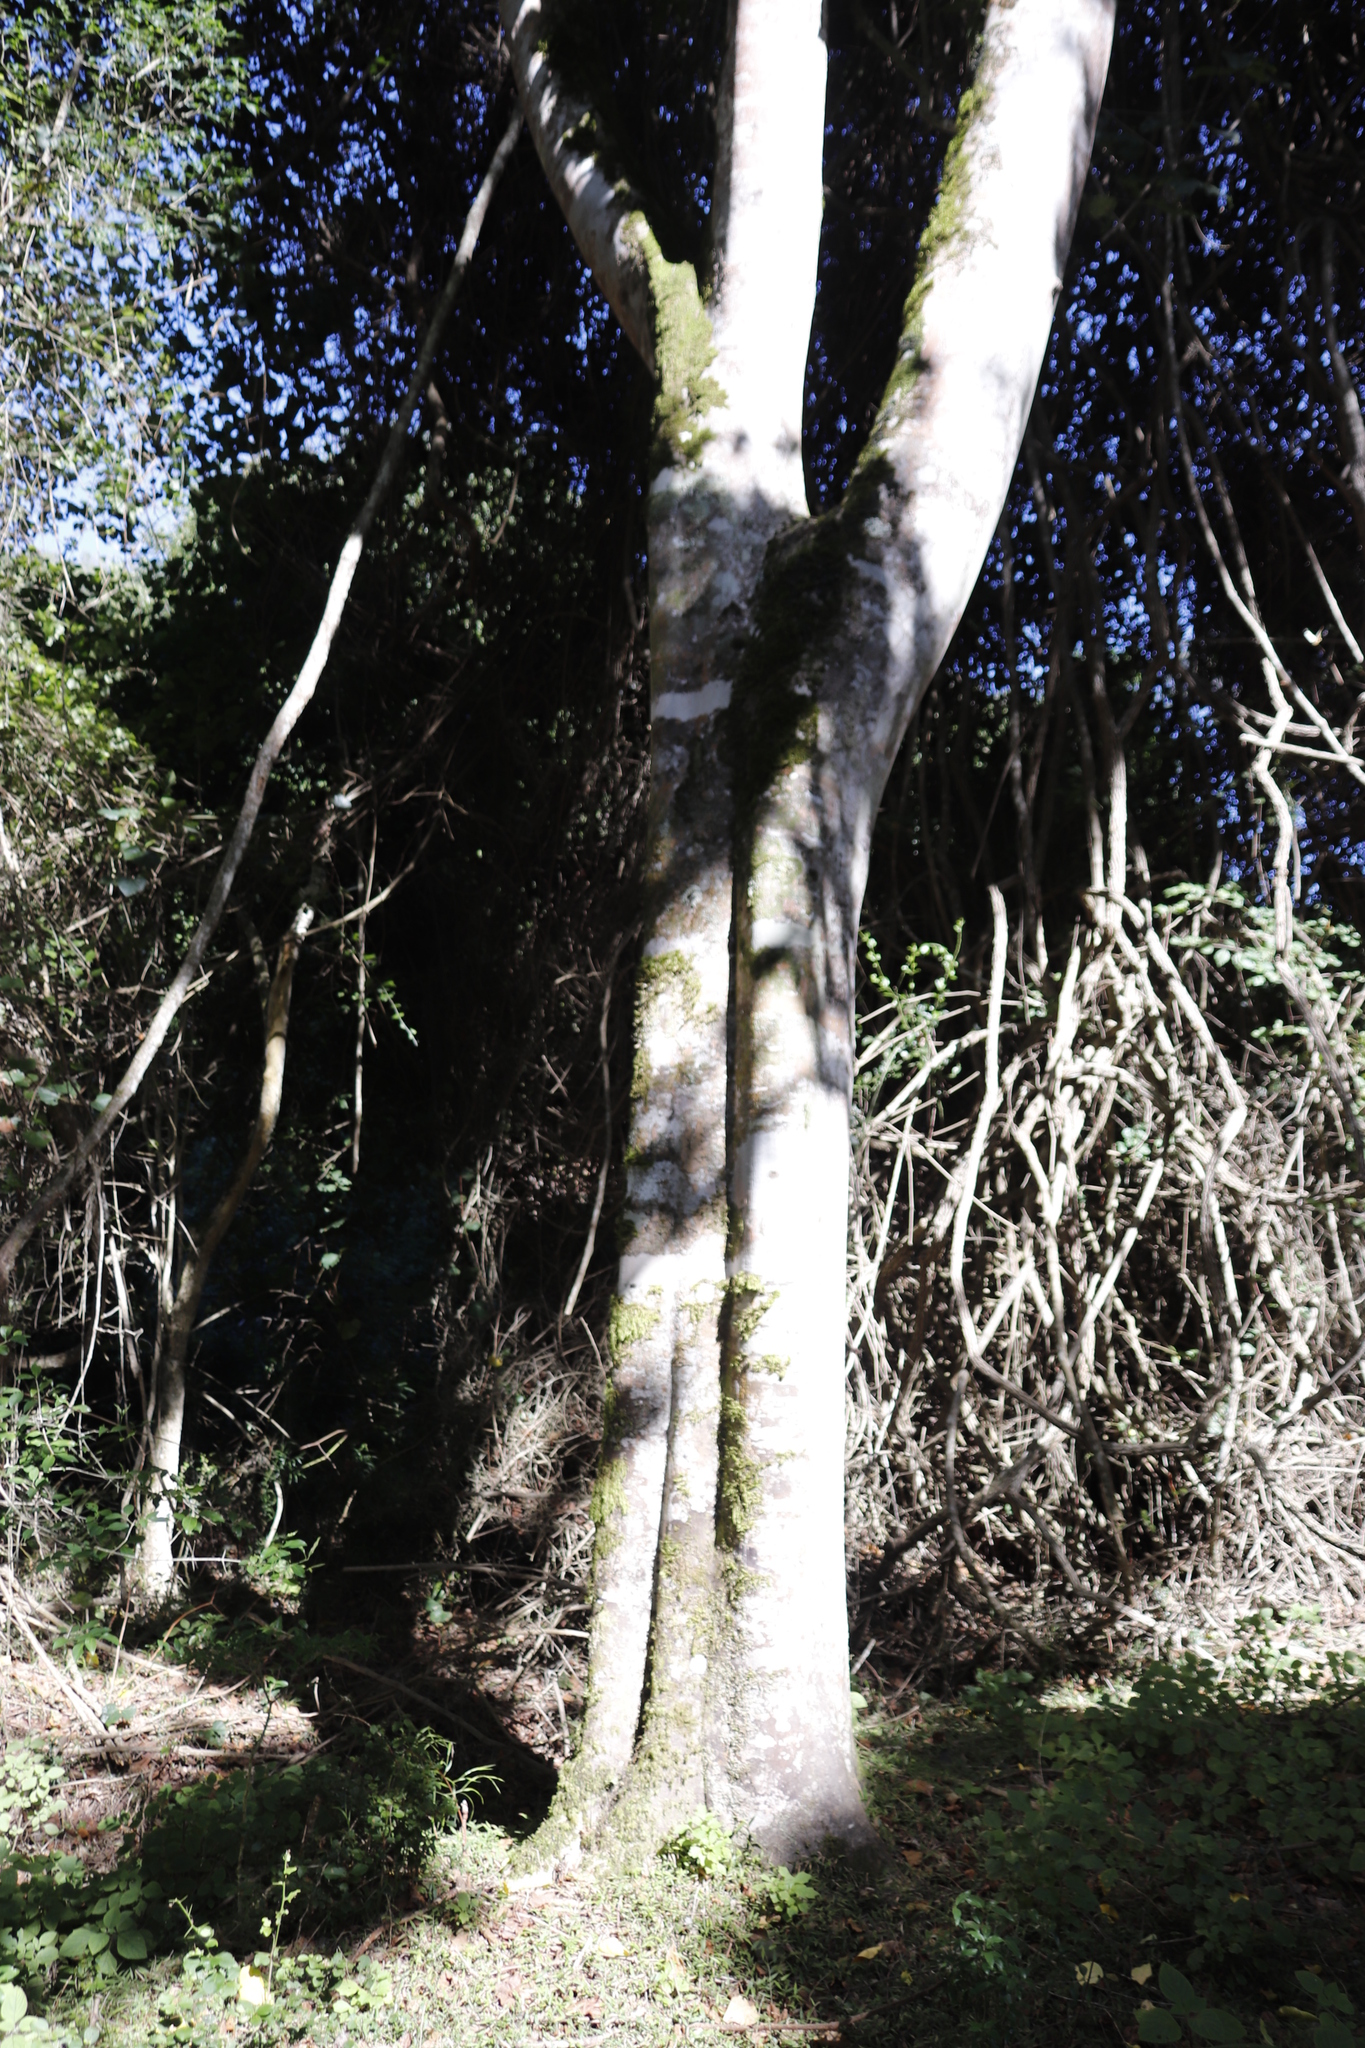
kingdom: Plantae
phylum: Tracheophyta
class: Magnoliopsida
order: Sapindales
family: Rutaceae
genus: Calodendrum
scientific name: Calodendrum capense
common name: Cape chestnut
